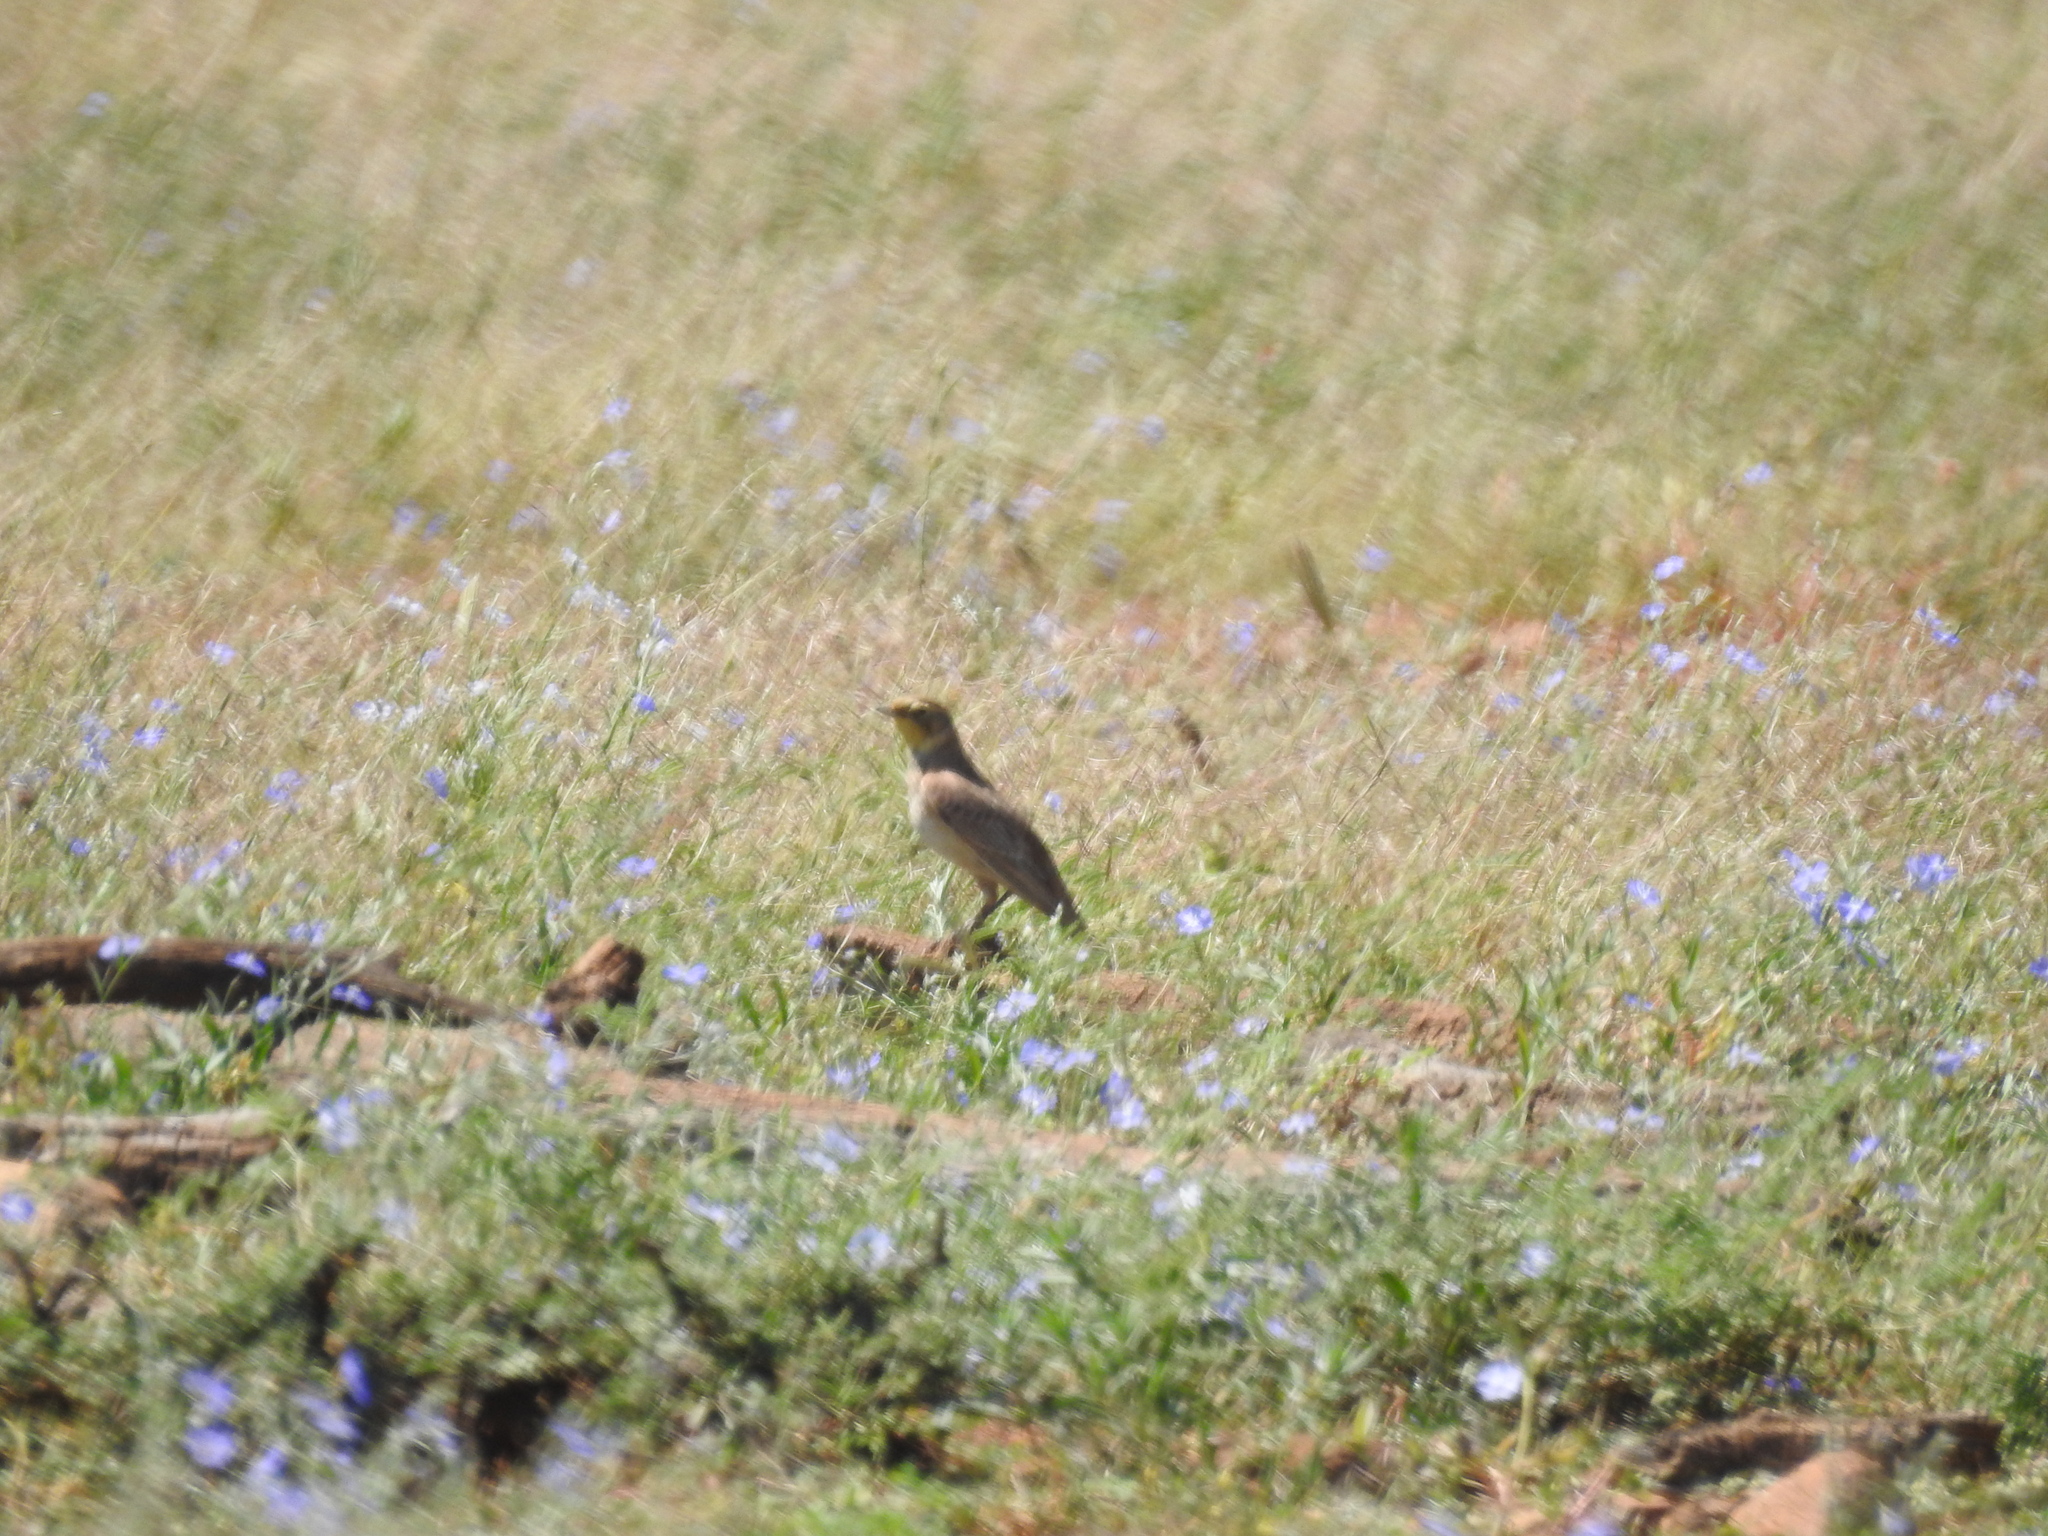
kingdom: Animalia
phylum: Chordata
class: Aves
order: Passeriformes
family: Alaudidae
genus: Eremophila
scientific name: Eremophila alpestris
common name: Horned lark
